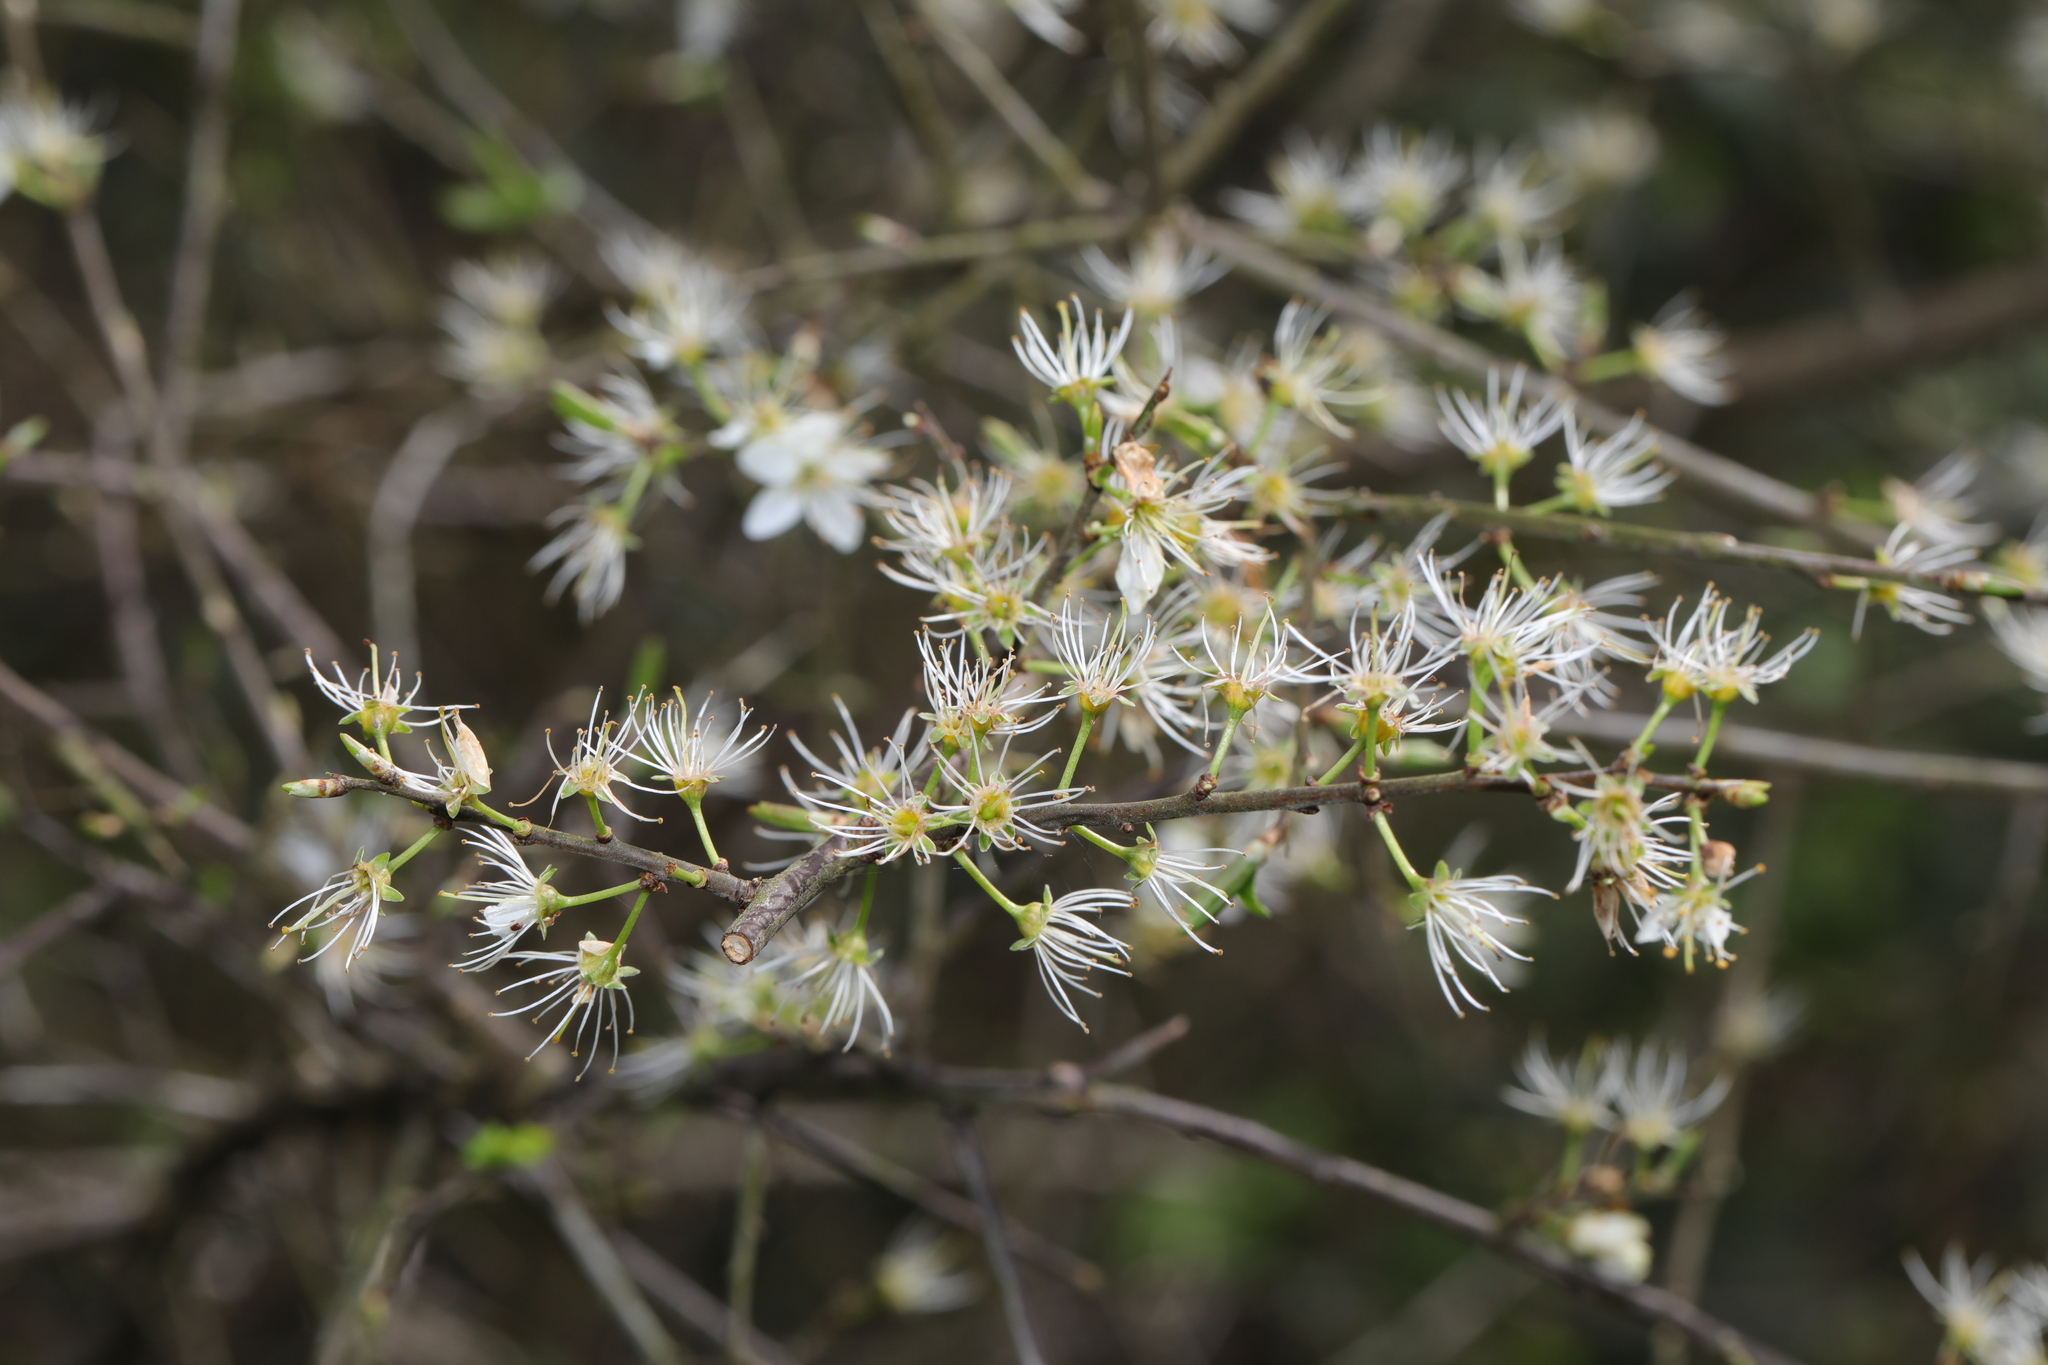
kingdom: Plantae
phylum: Tracheophyta
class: Magnoliopsida
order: Rosales
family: Rosaceae
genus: Prunus
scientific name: Prunus spinosa
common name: Blackthorn
